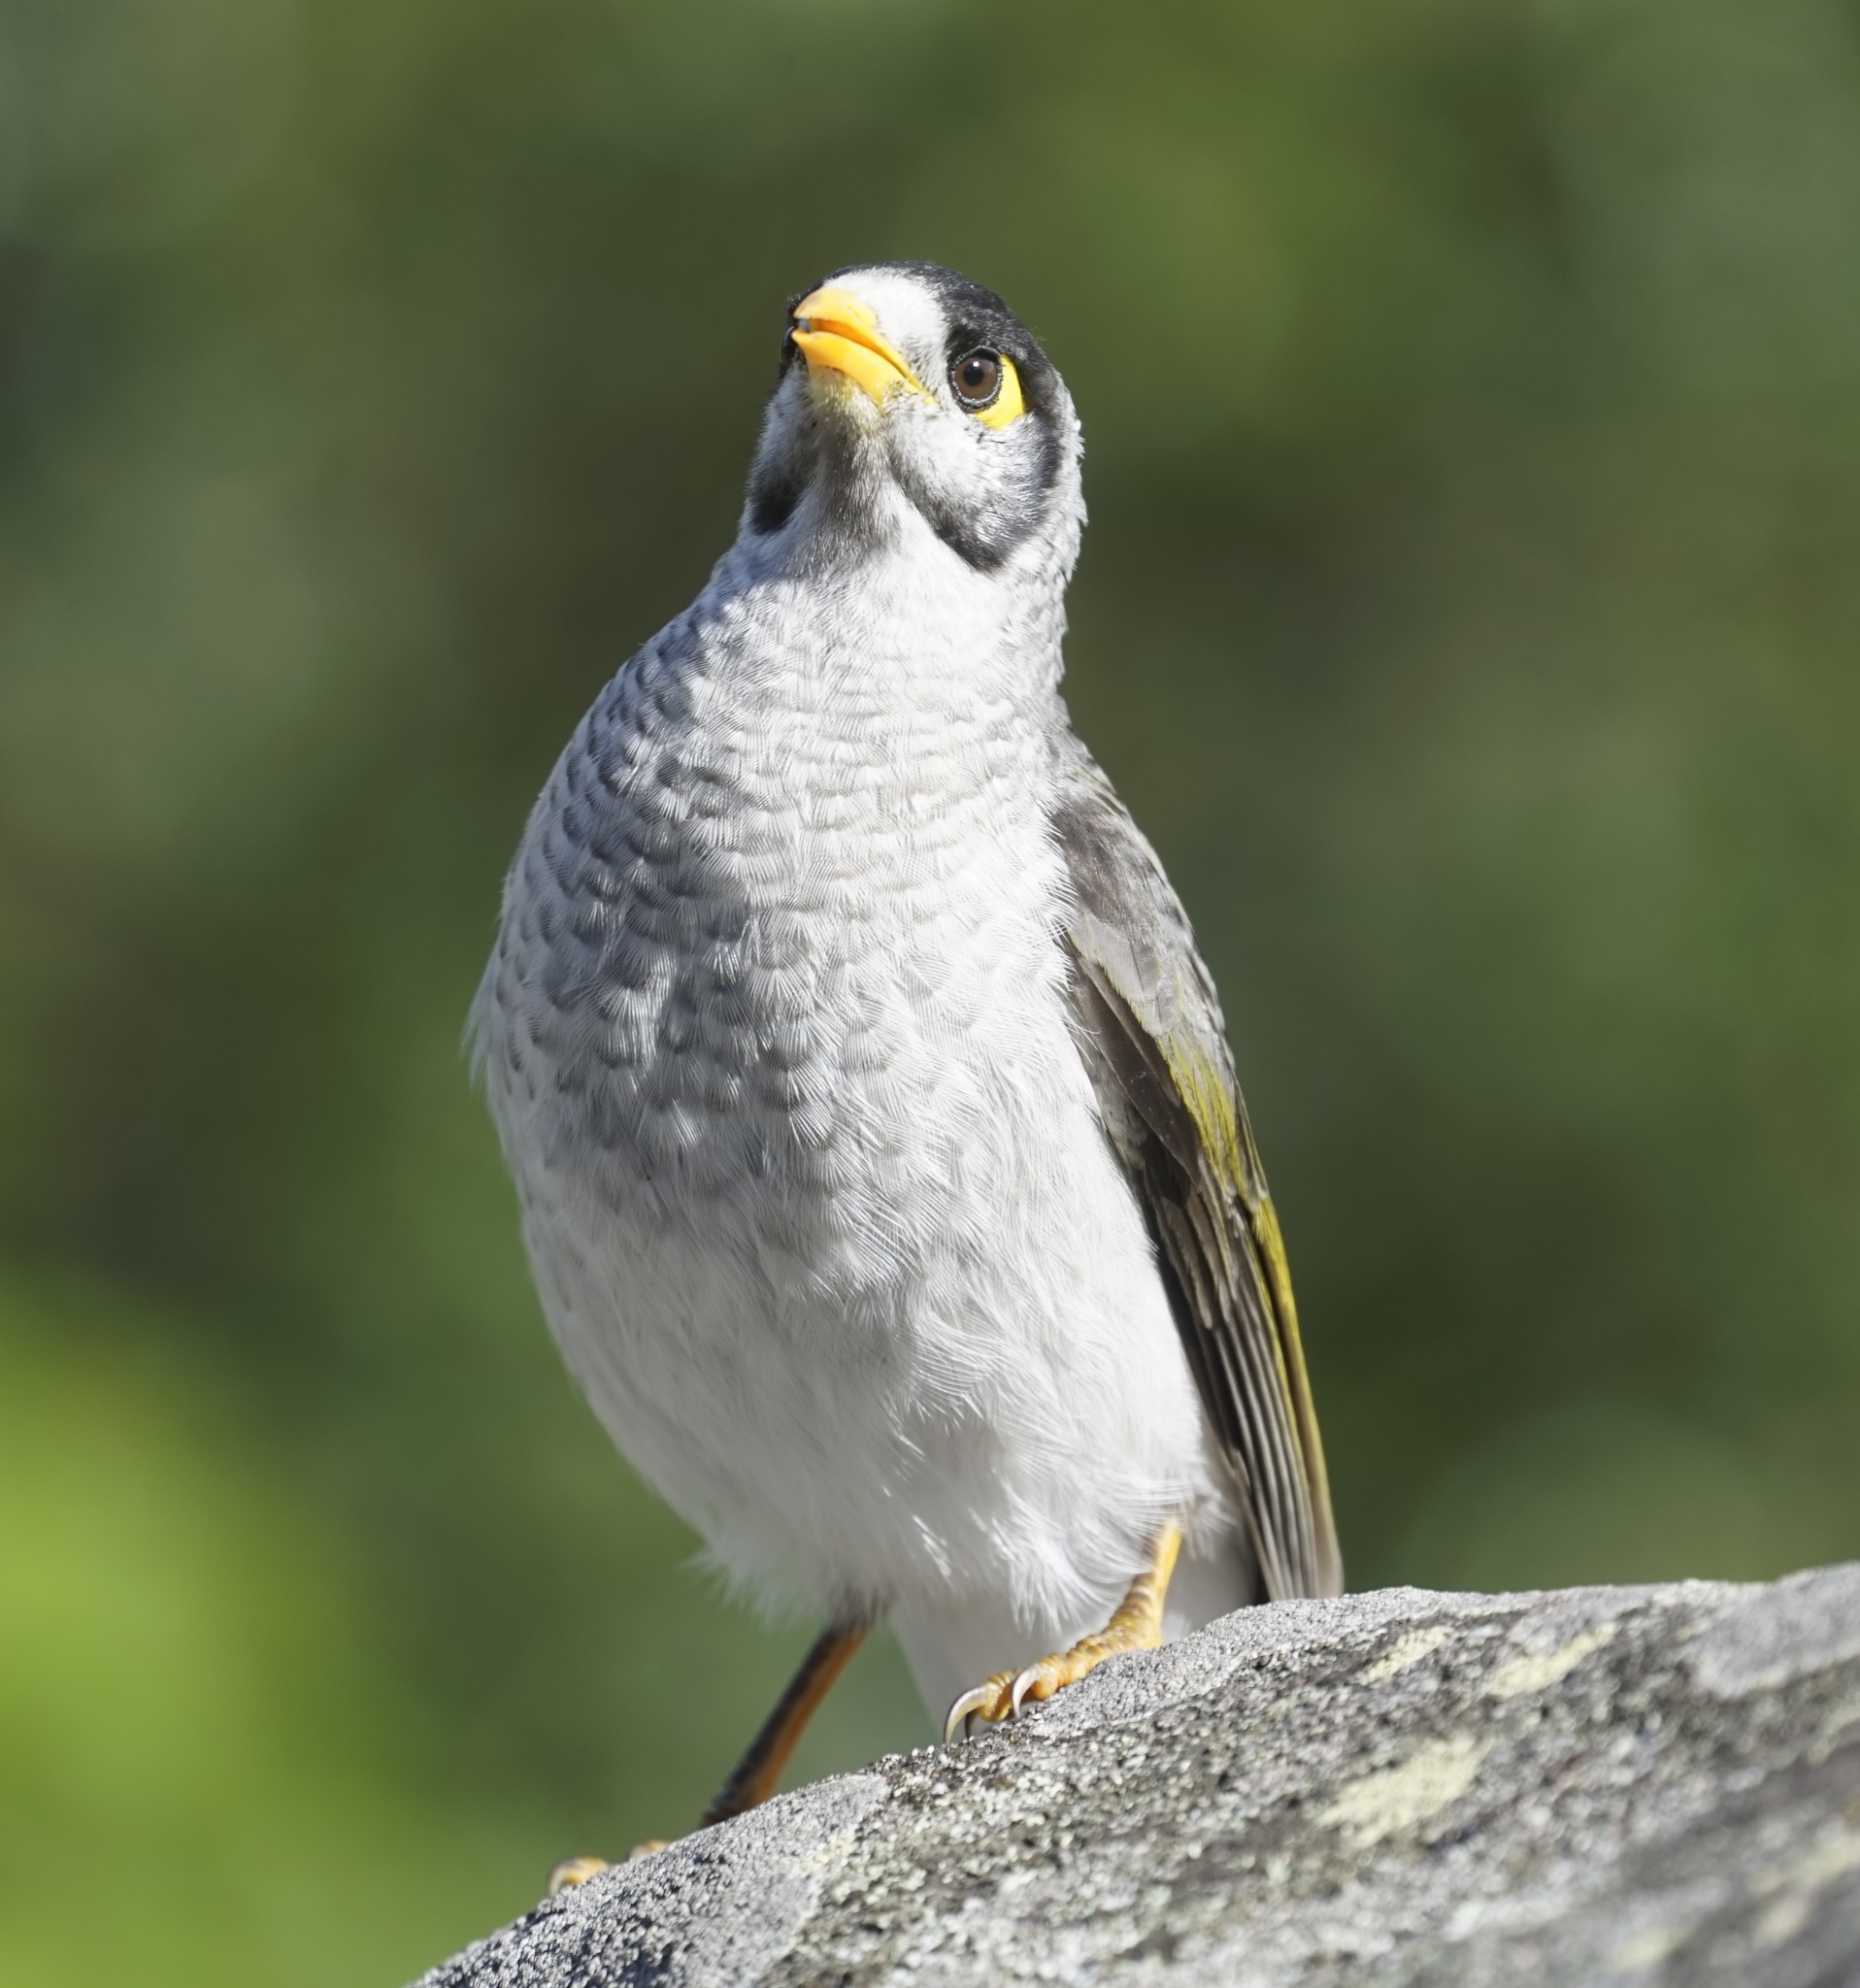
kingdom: Animalia
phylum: Chordata
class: Aves
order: Passeriformes
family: Meliphagidae
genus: Manorina
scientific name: Manorina melanocephala
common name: Noisy miner
